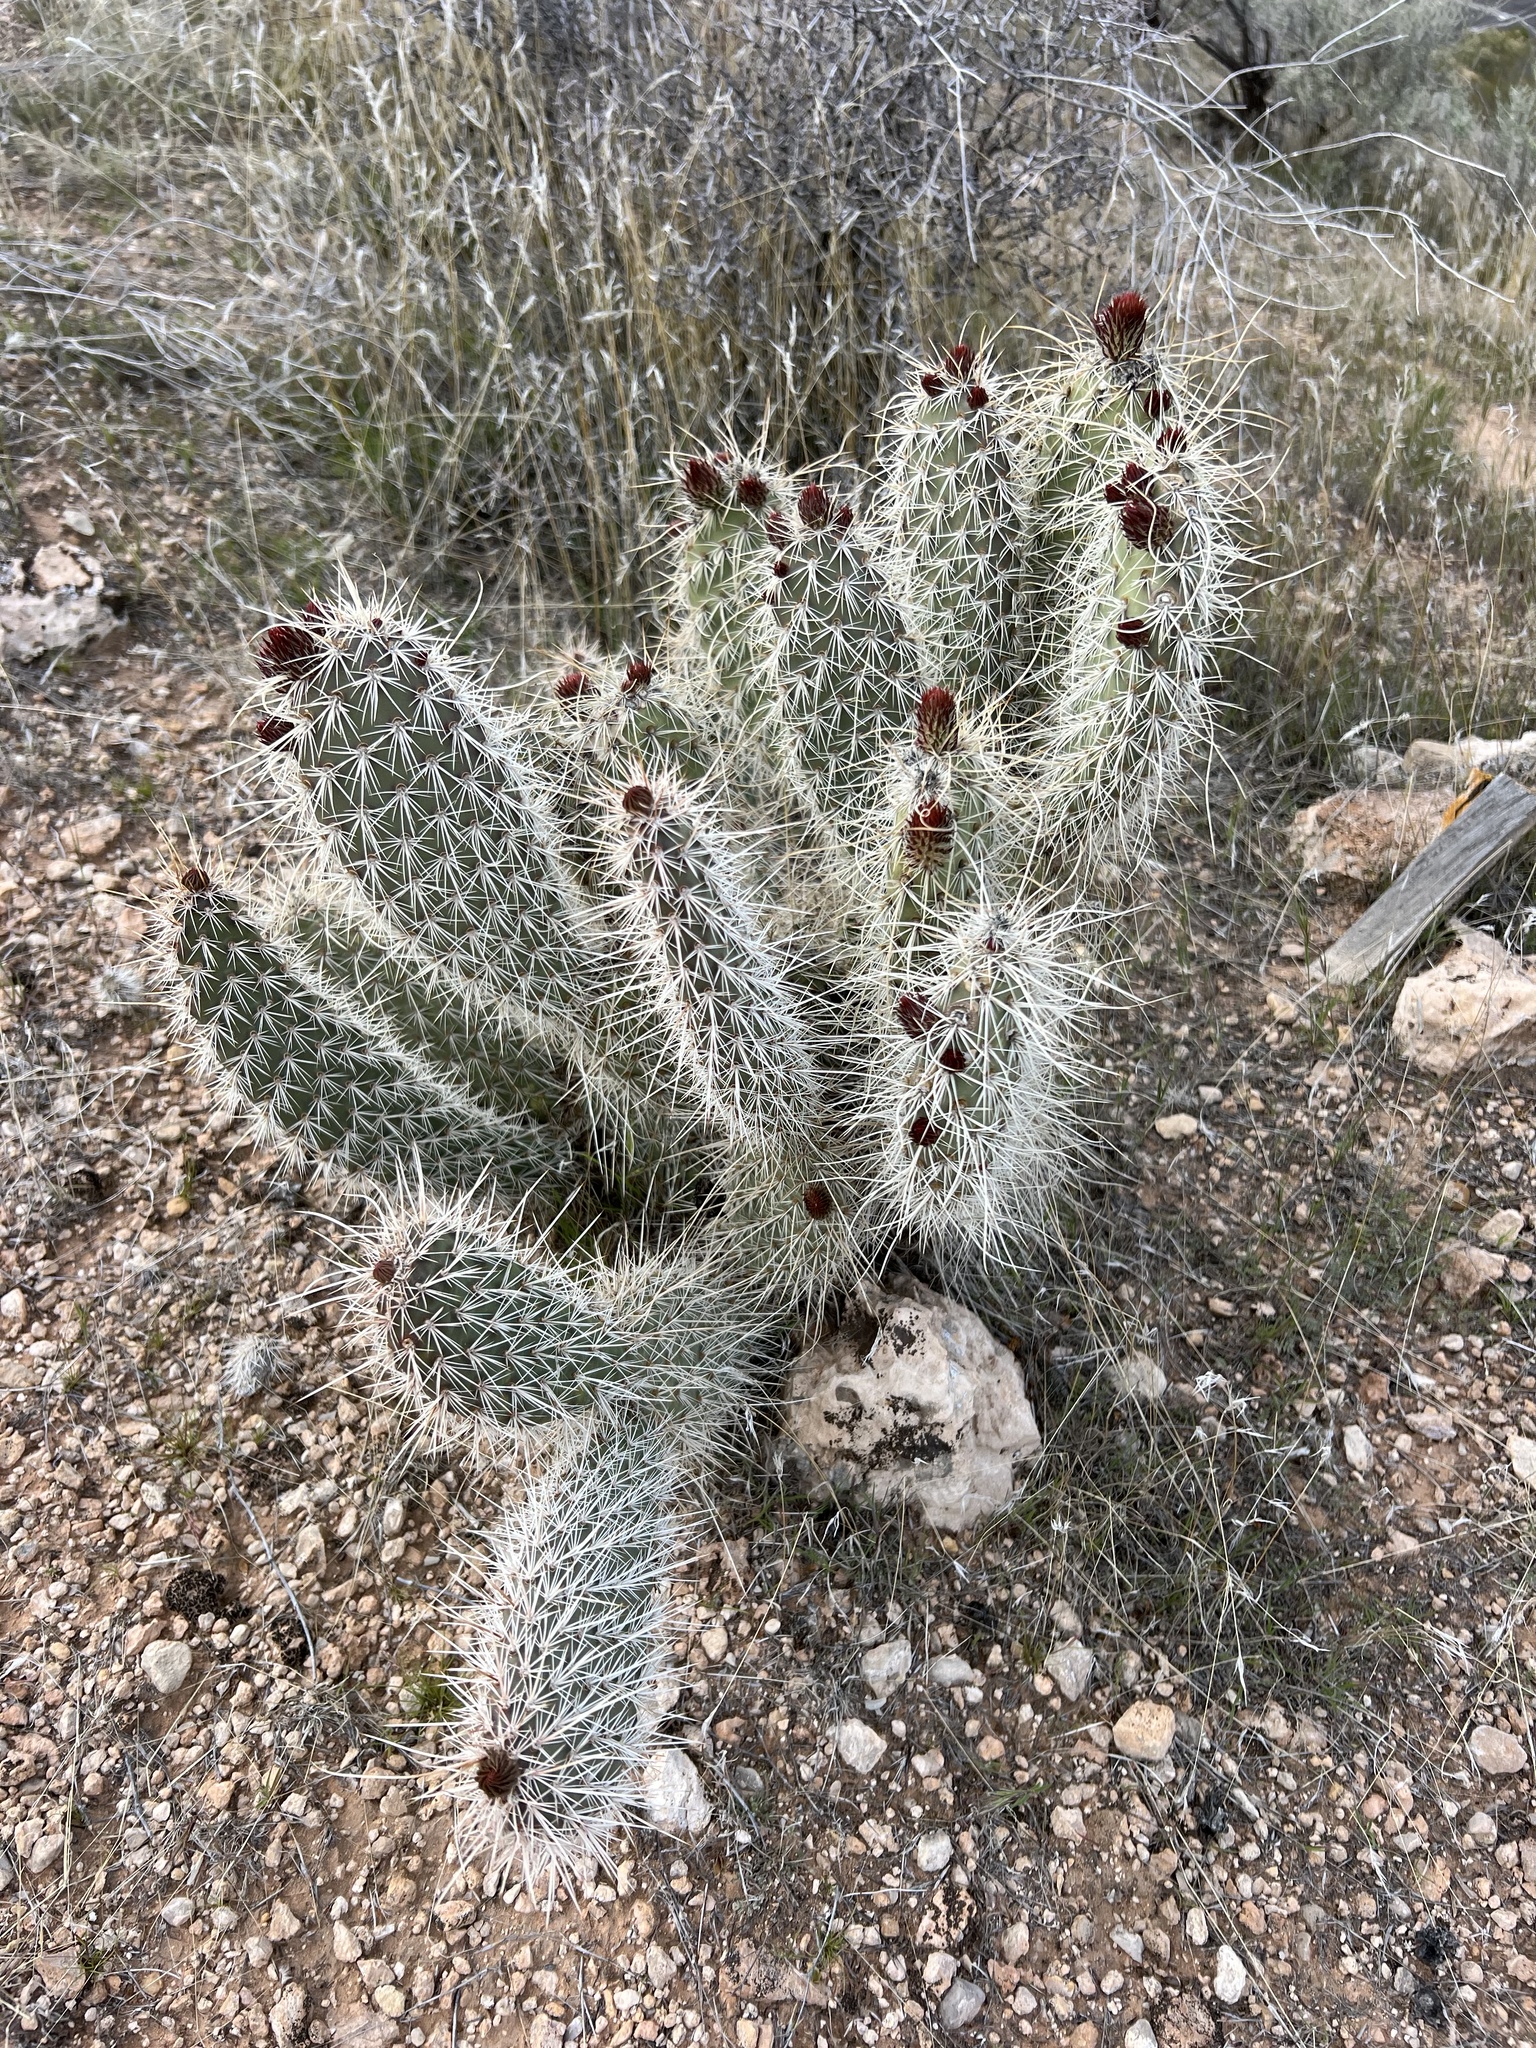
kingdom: Plantae
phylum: Tracheophyta
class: Magnoliopsida
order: Caryophyllales
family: Cactaceae
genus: Opuntia
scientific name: Opuntia polyacantha
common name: Plains prickly-pear
